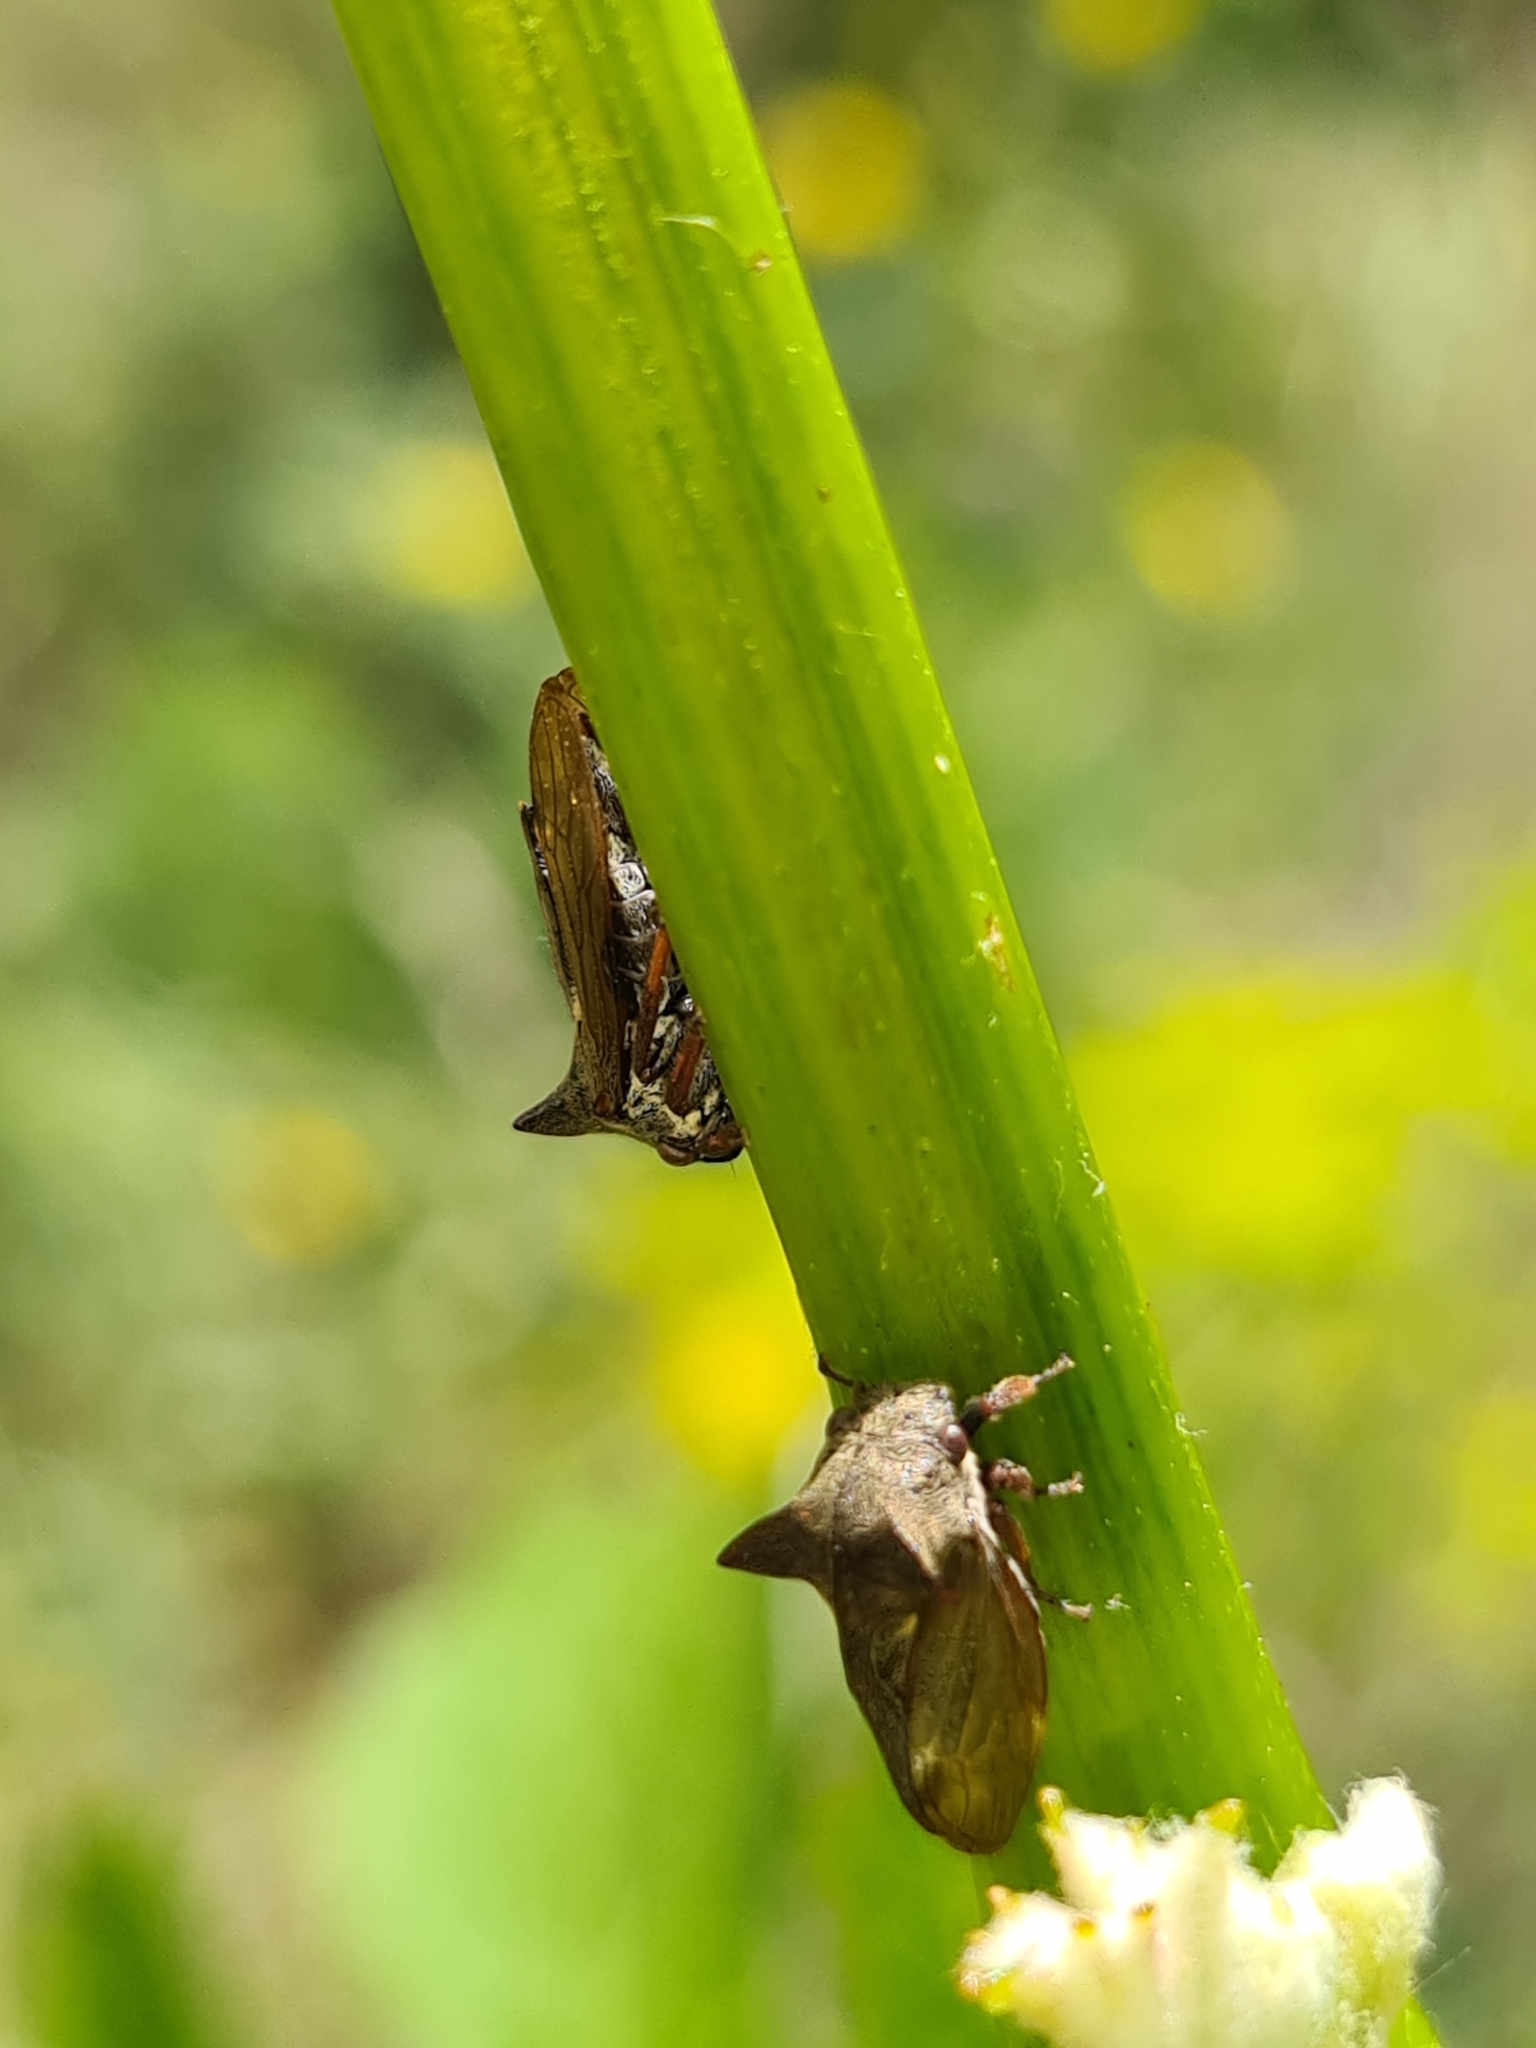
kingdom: Animalia
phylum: Arthropoda
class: Insecta
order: Hemiptera
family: Membracidae
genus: Centrotus
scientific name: Centrotus cornuta
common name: Treehopper
